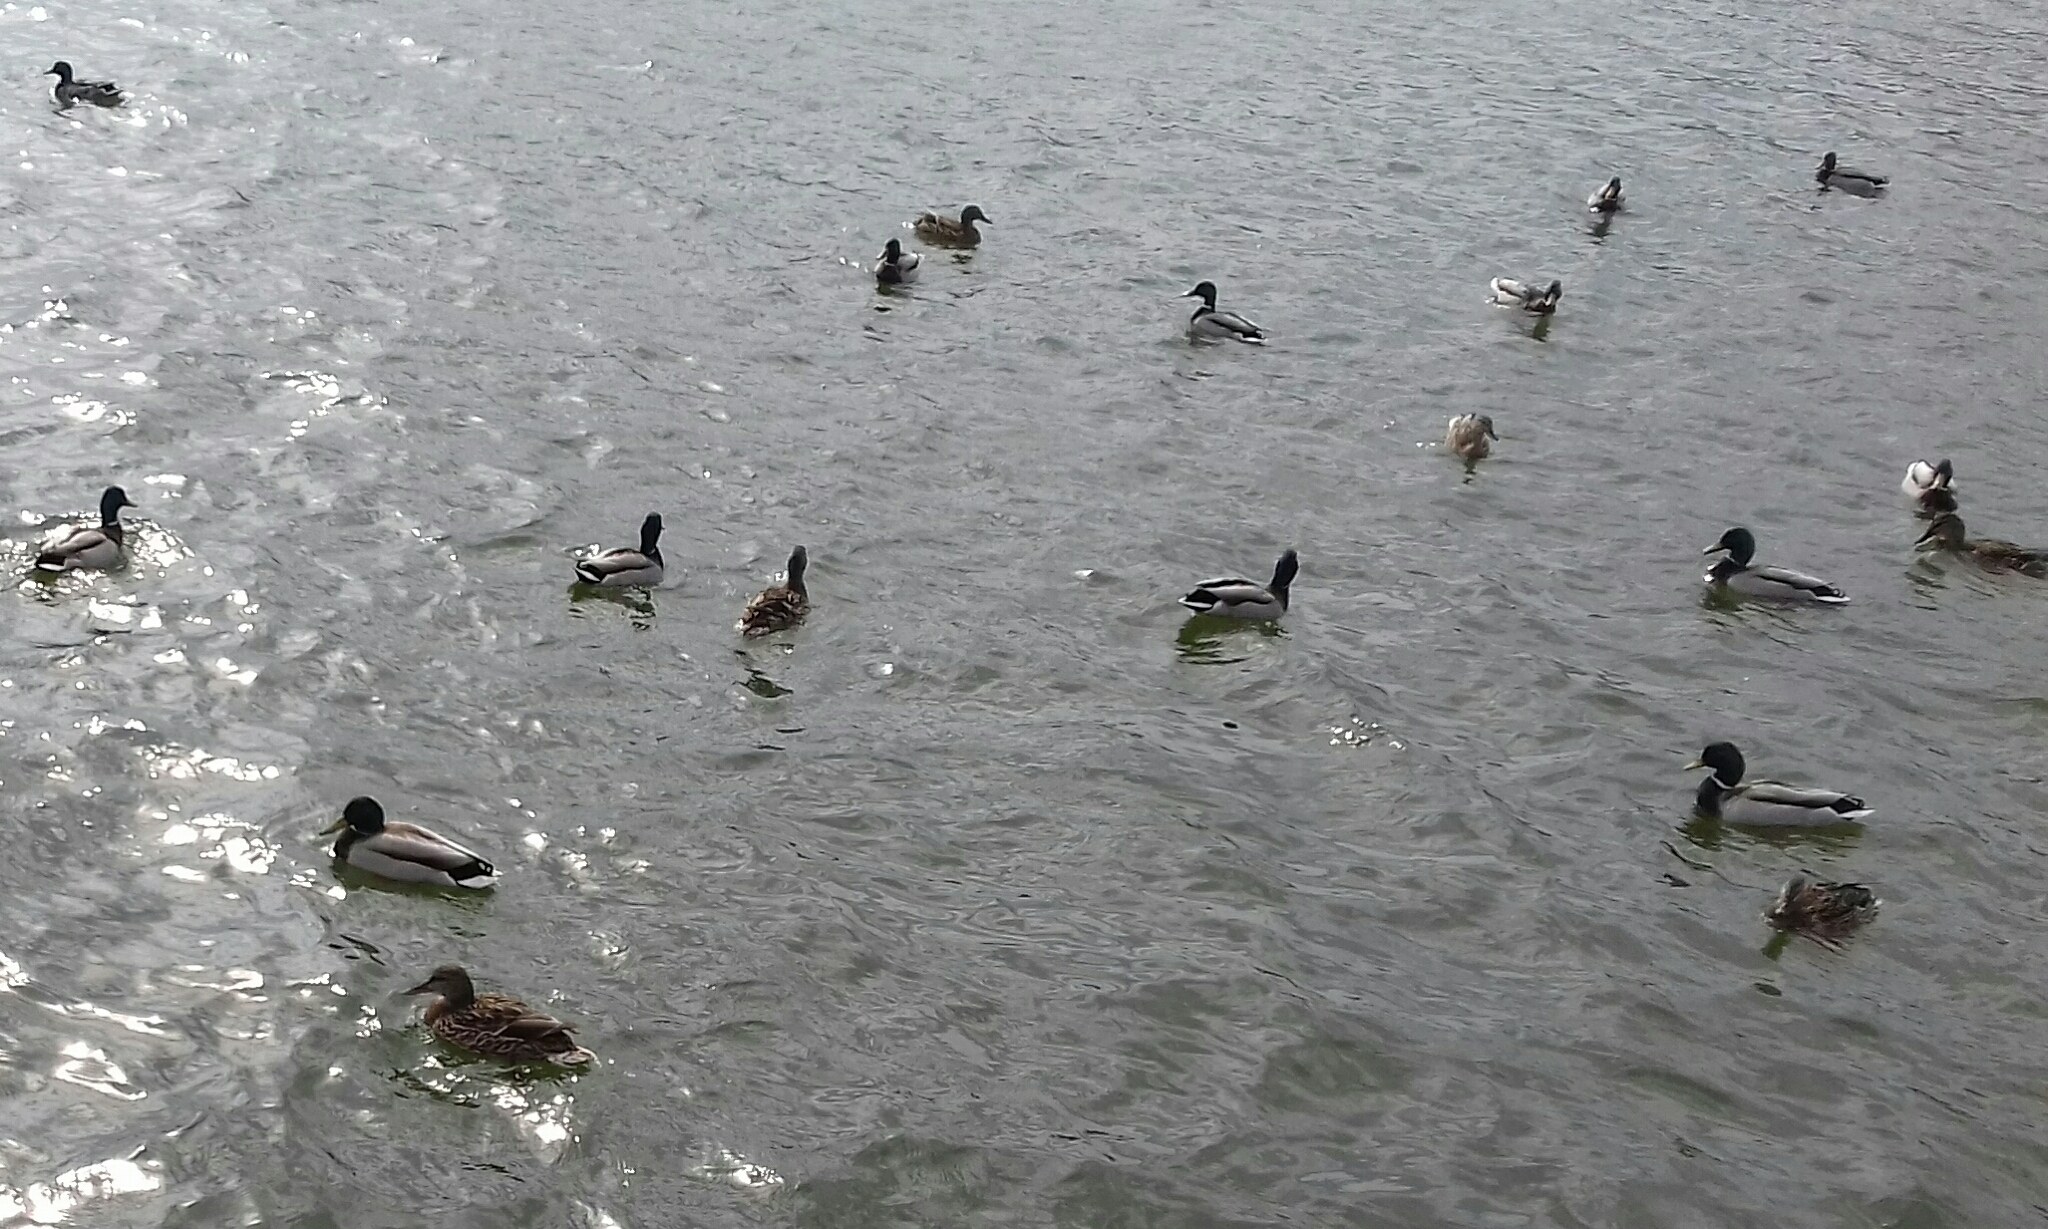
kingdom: Animalia
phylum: Chordata
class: Aves
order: Anseriformes
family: Anatidae
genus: Anas
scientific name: Anas platyrhynchos
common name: Mallard
